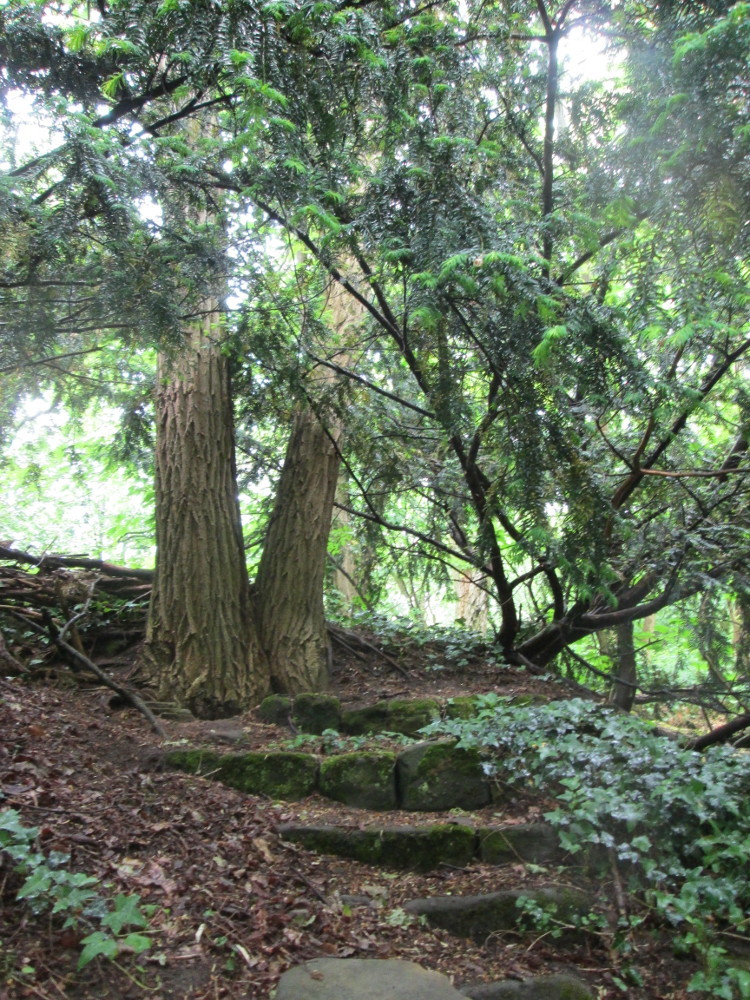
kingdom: Plantae
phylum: Tracheophyta
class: Pinopsida
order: Pinales
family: Taxaceae
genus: Taxus
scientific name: Taxus baccata
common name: Yew
